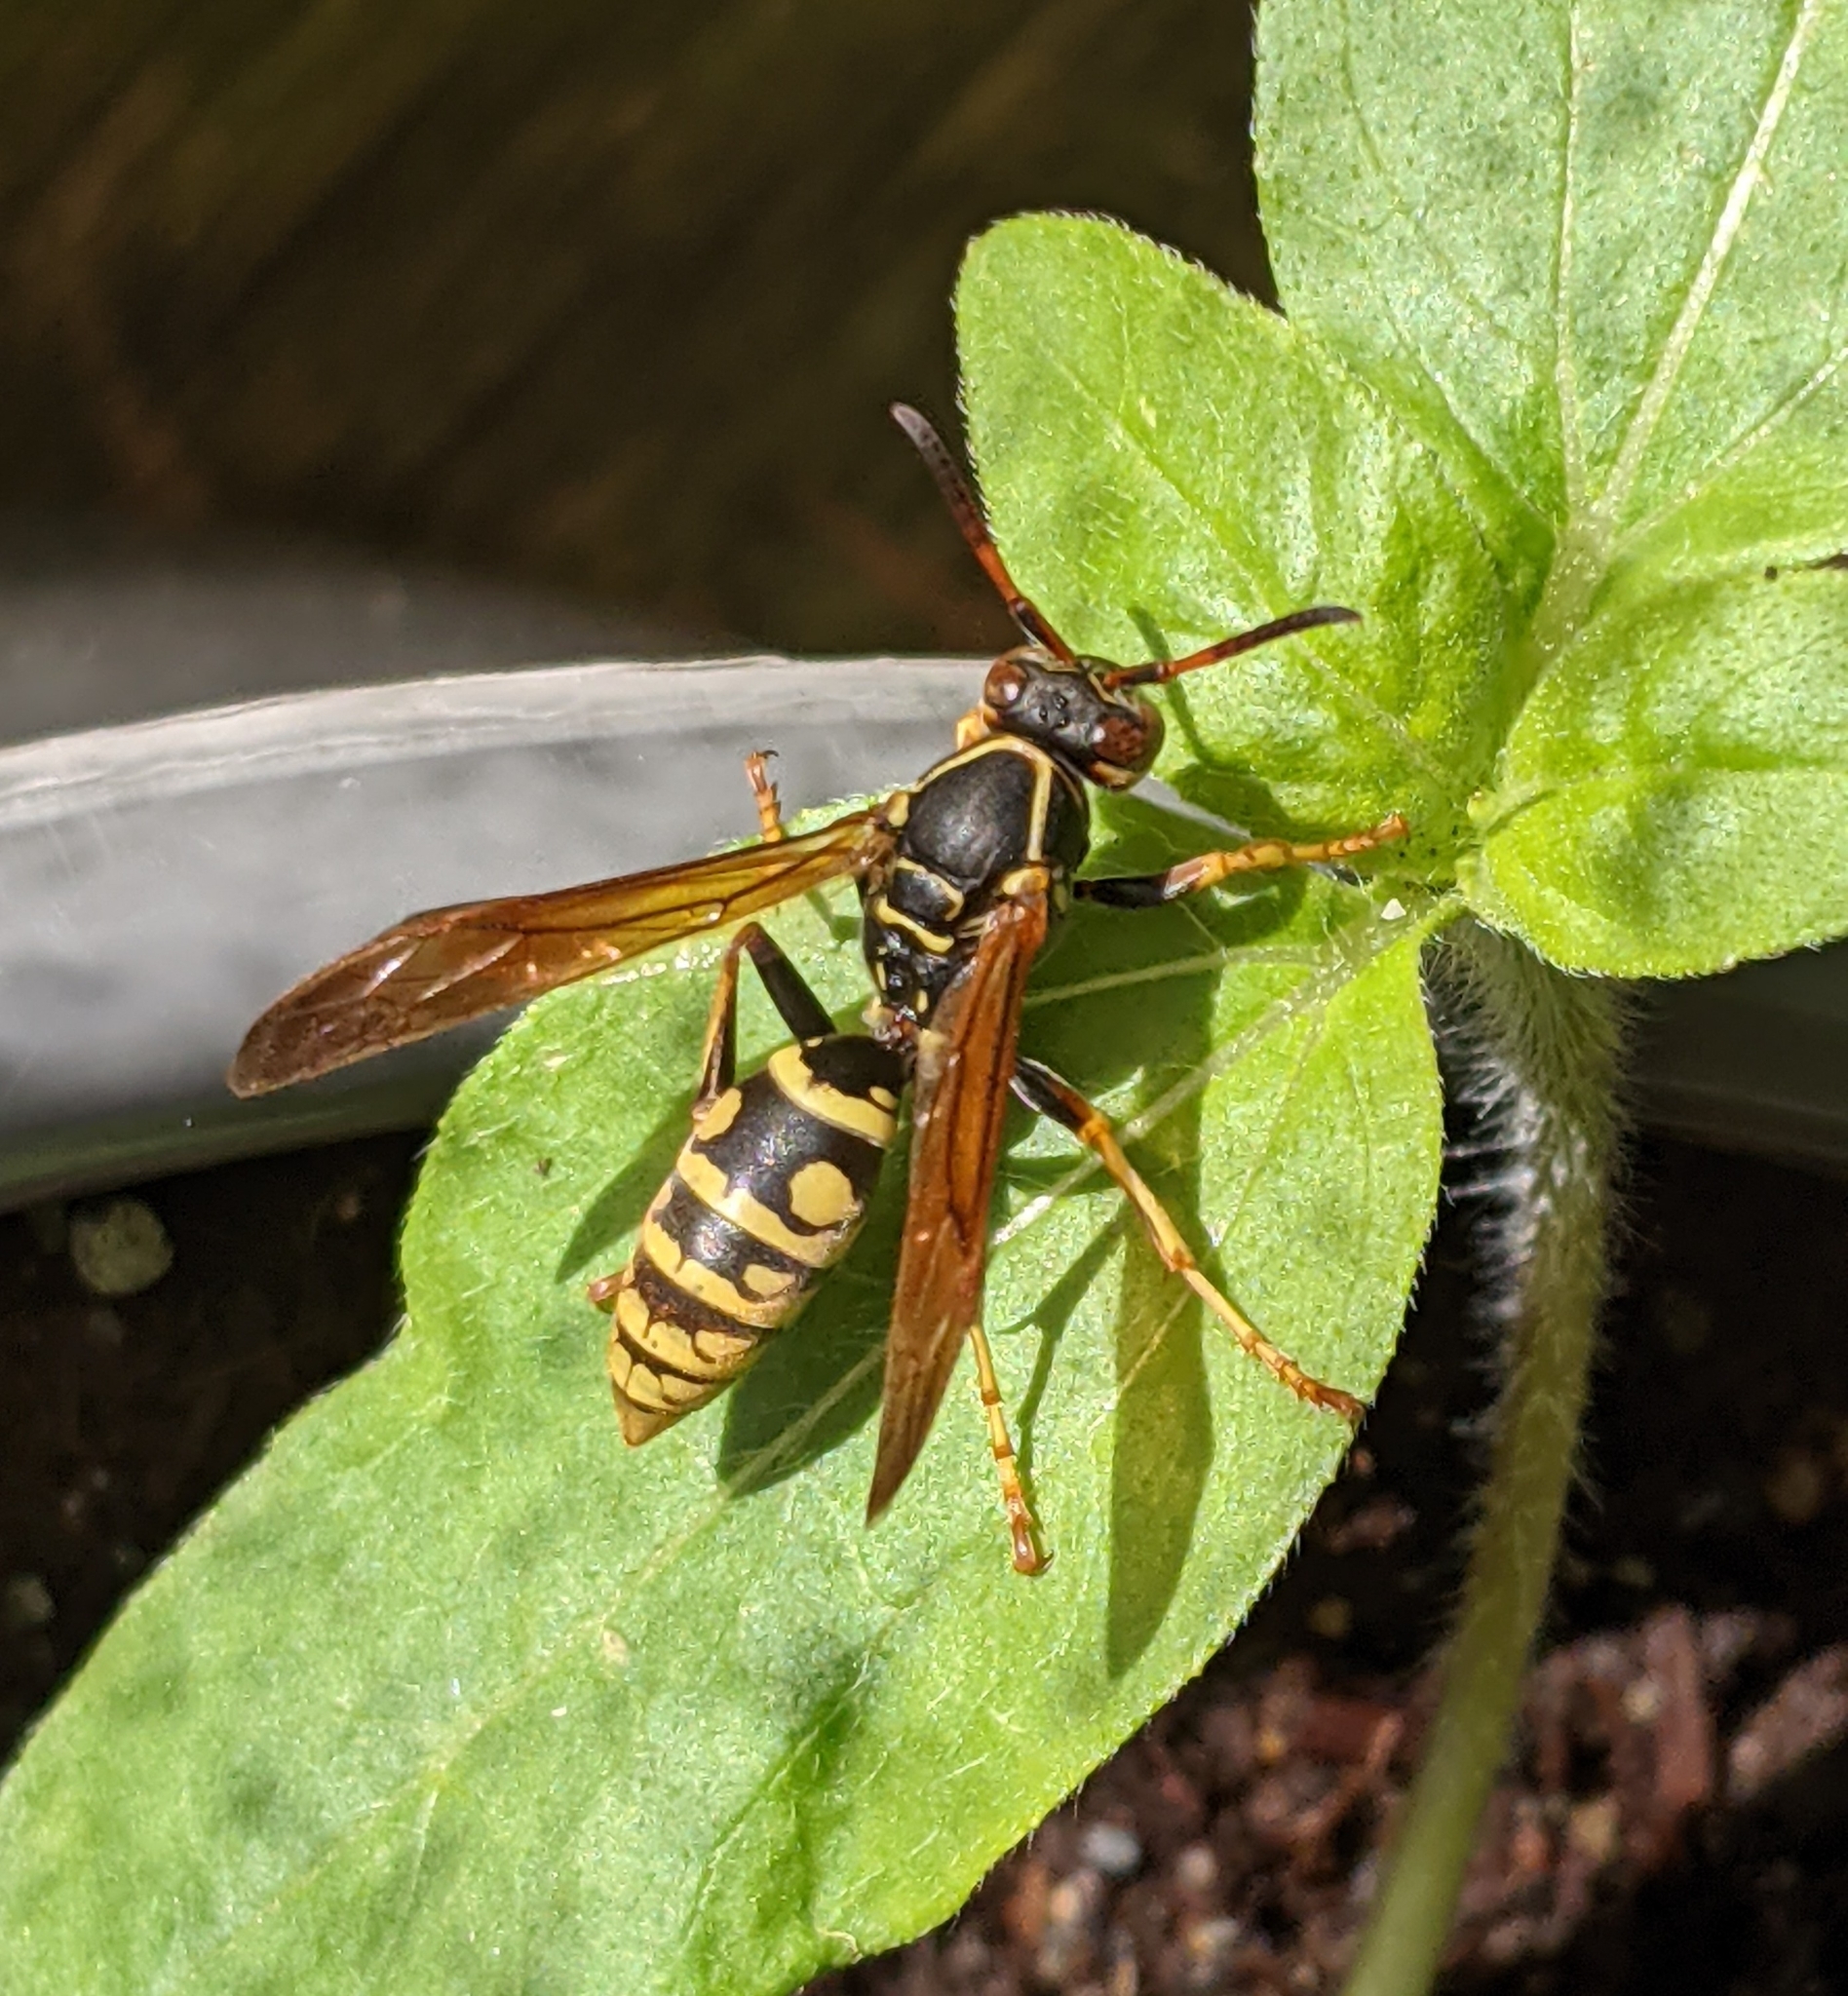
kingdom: Animalia
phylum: Arthropoda
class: Insecta
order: Hymenoptera
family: Eumenidae
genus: Polistes
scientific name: Polistes aurifer
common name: Paper wasp
